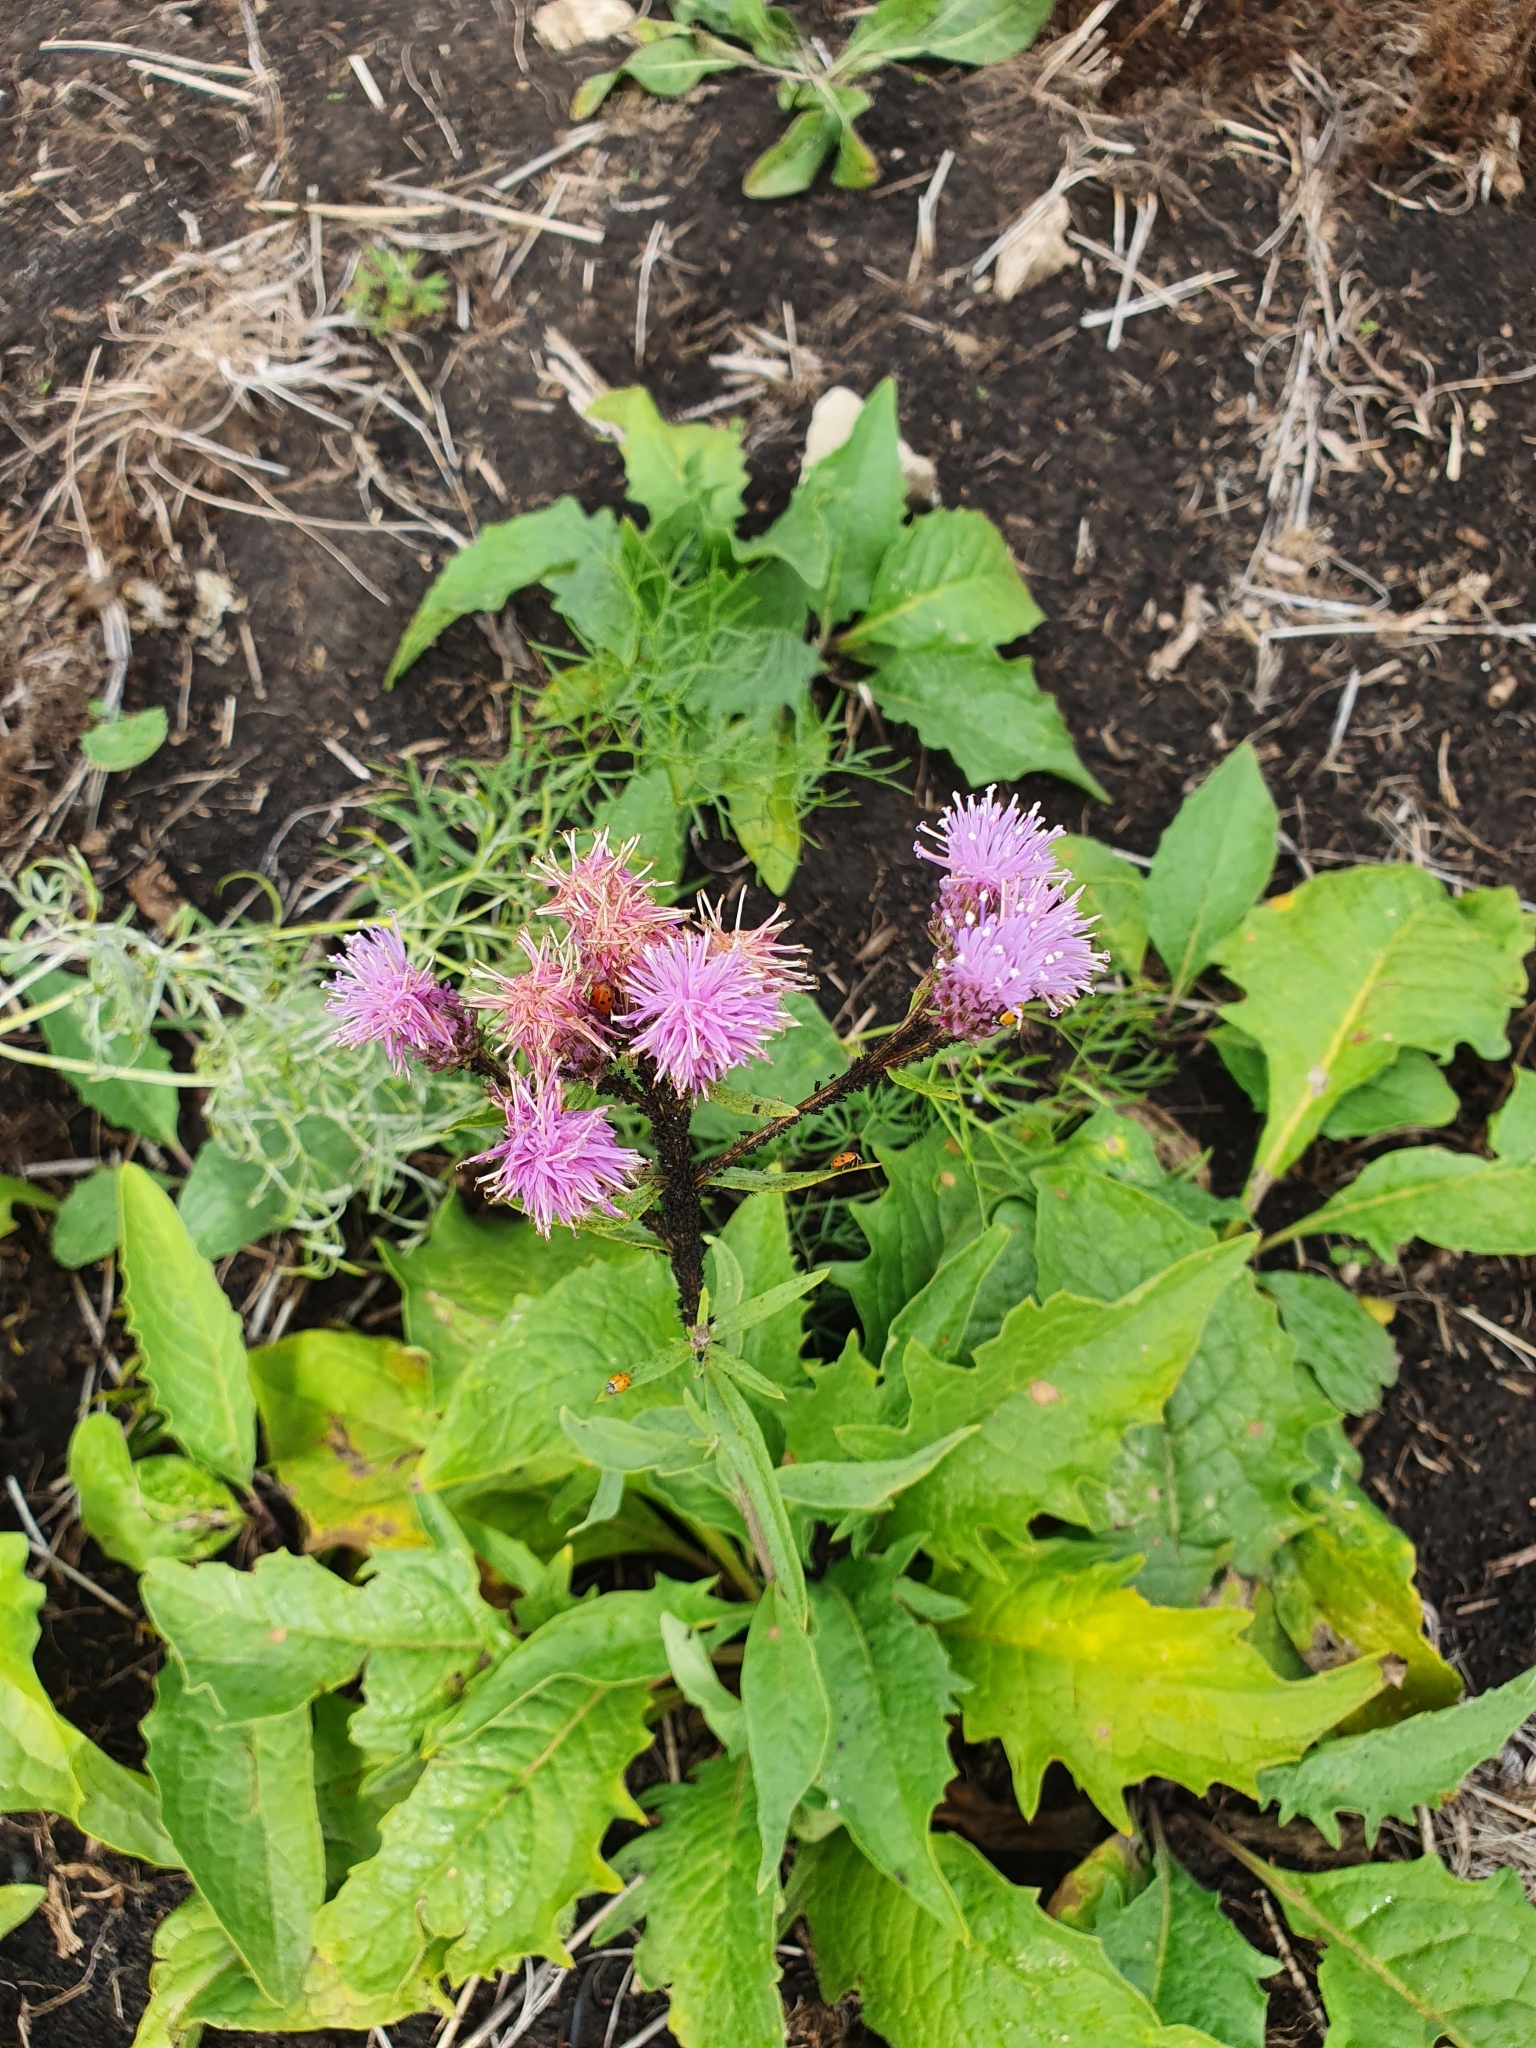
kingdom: Plantae
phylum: Tracheophyta
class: Magnoliopsida
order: Asterales
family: Asteraceae
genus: Saussurea
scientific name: Saussurea amara
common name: Alberta sawwort
